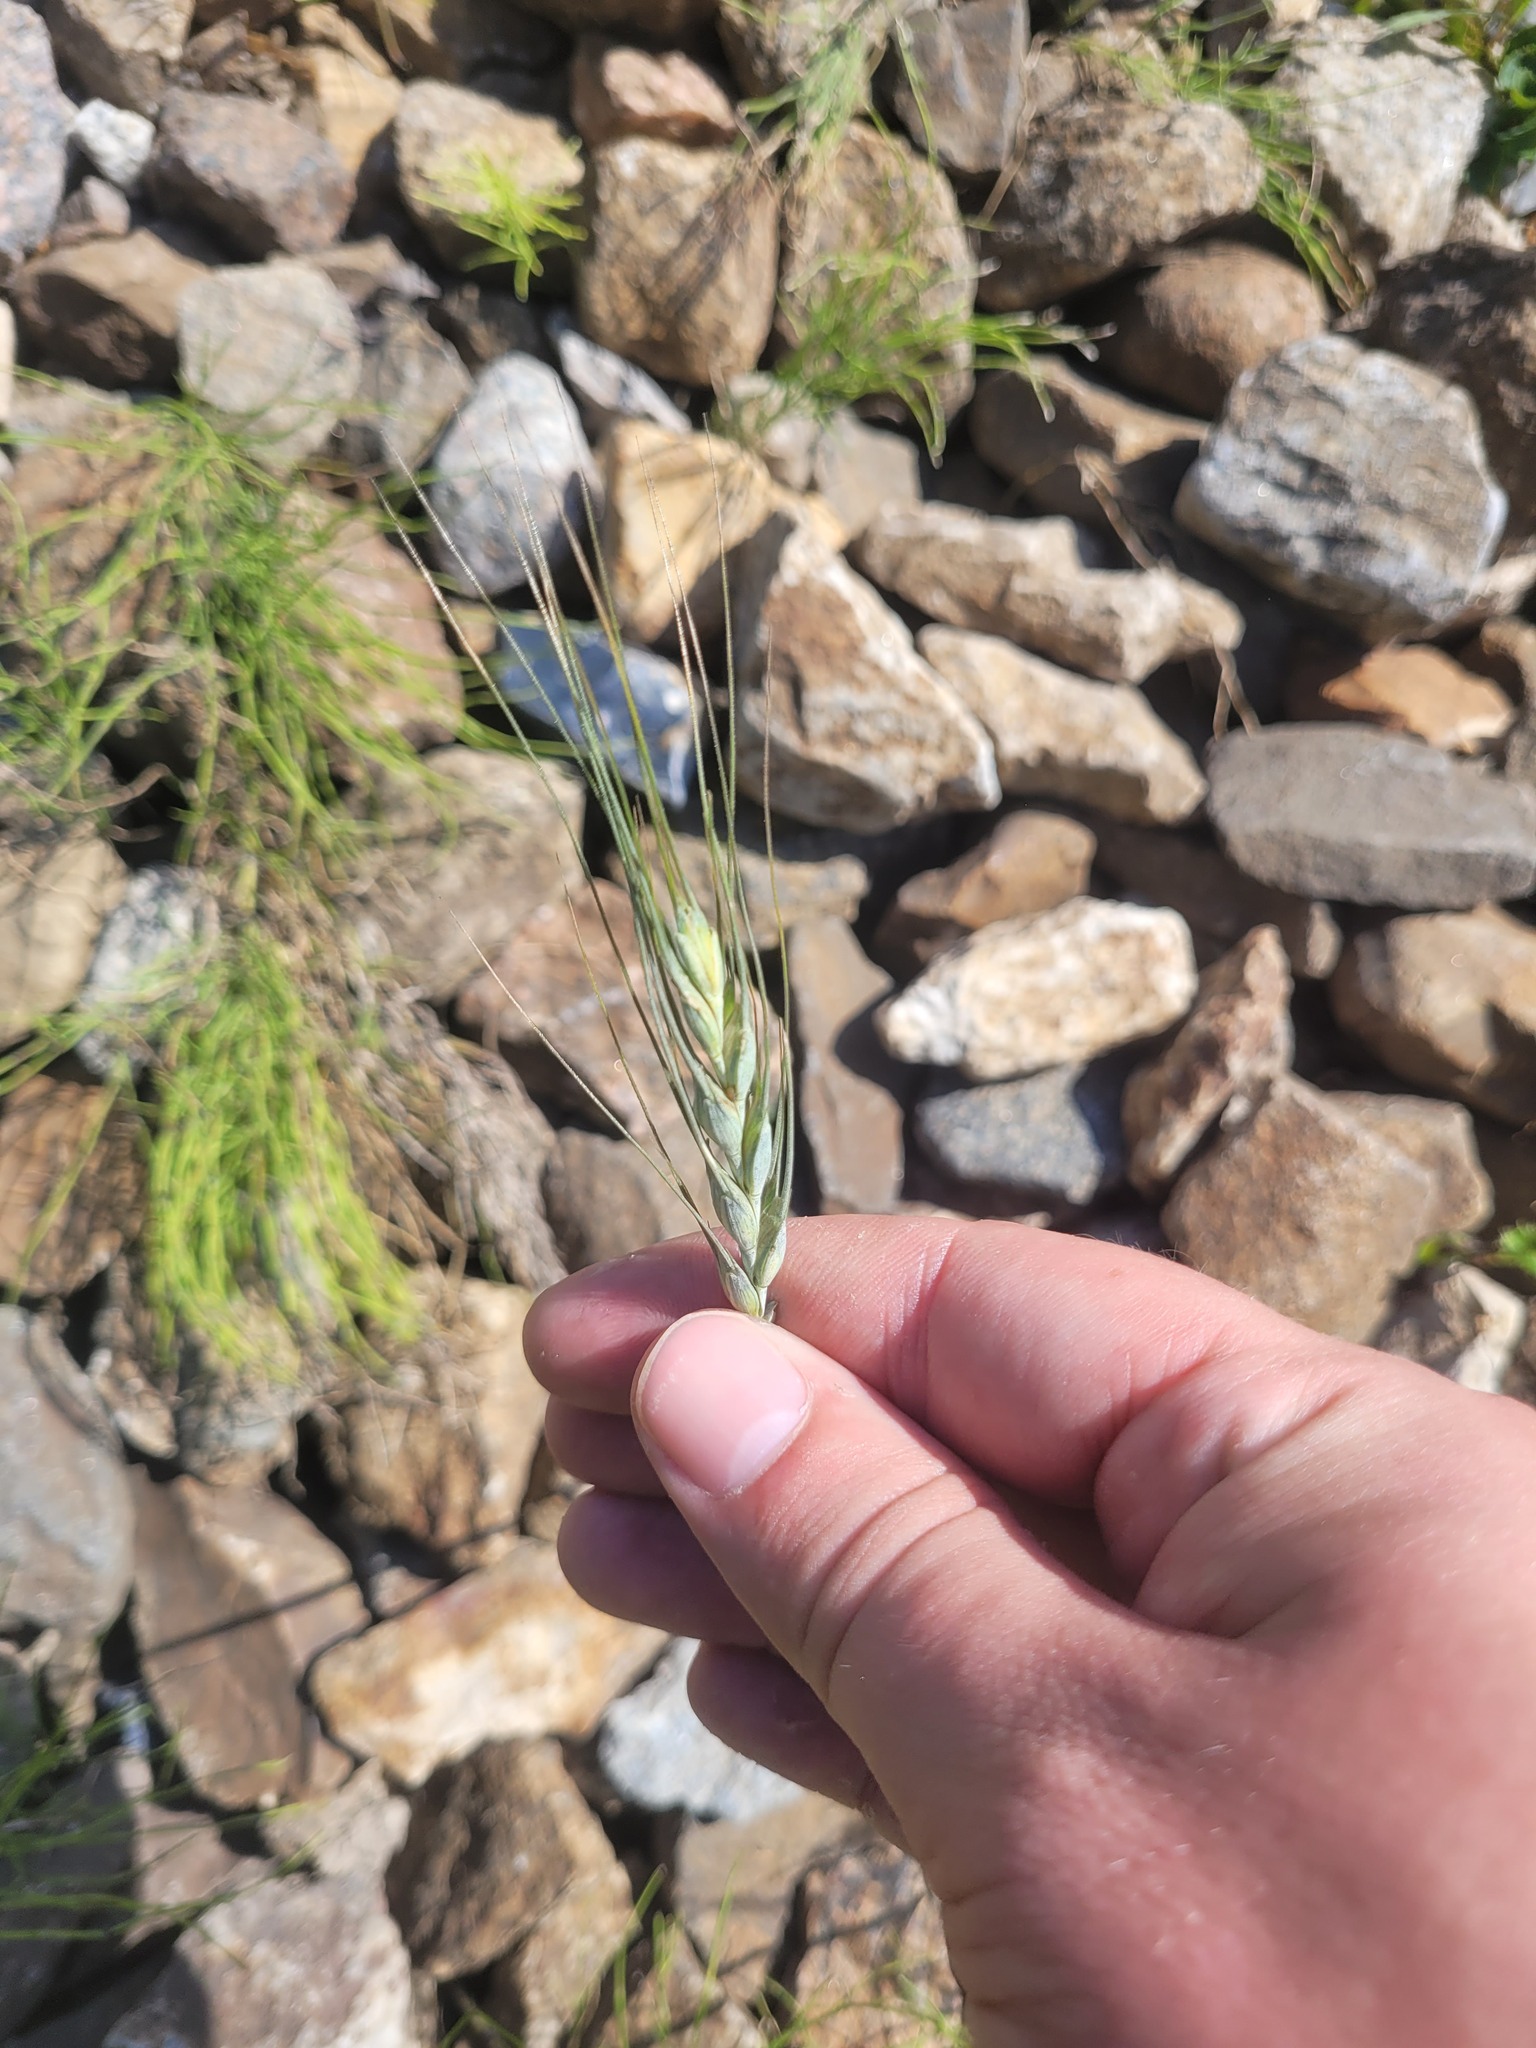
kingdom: Plantae
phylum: Tracheophyta
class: Liliopsida
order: Poales
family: Poaceae
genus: Triticum
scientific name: Triticum aestivum
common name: Common wheat
